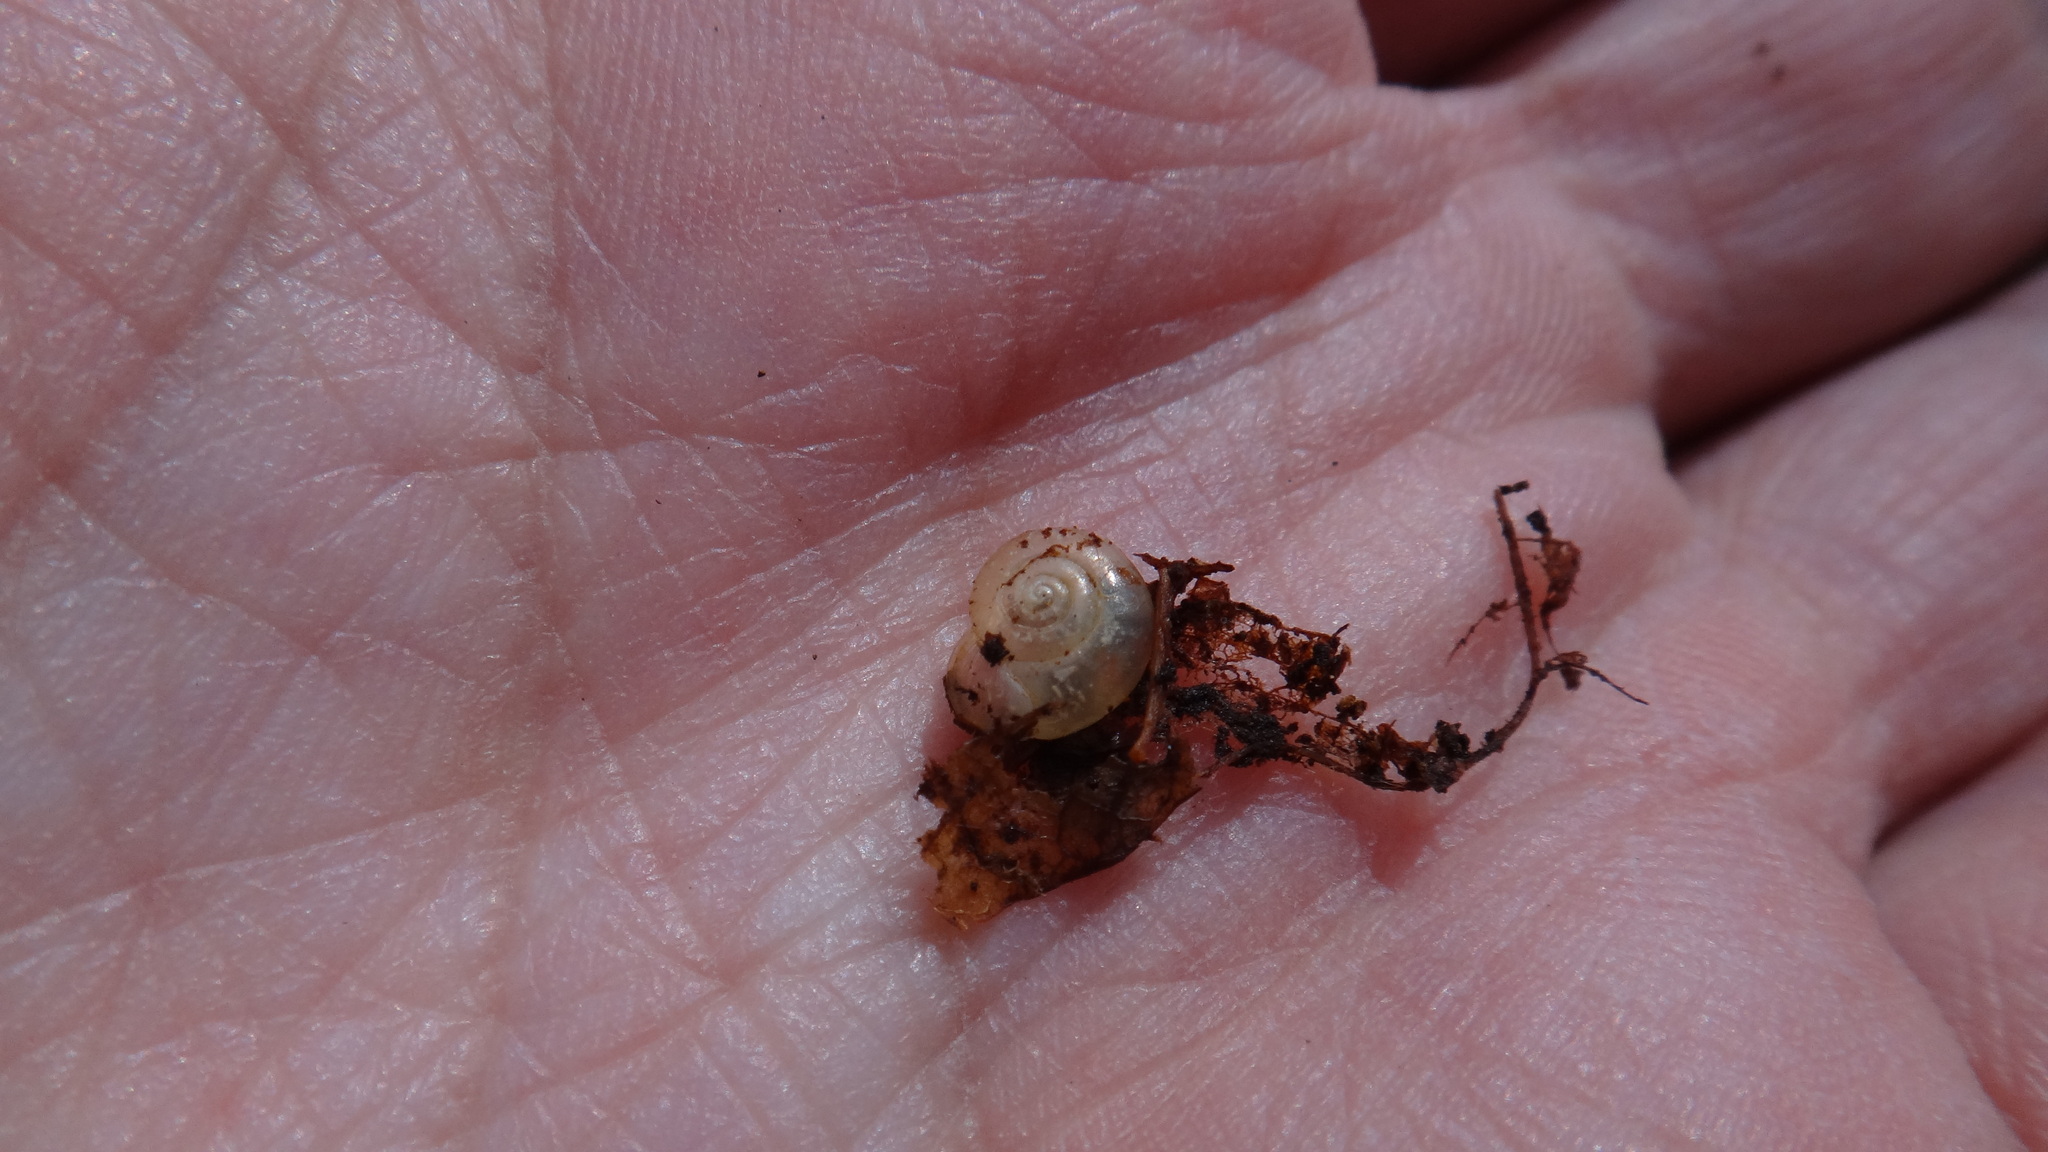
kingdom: Animalia
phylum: Mollusca
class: Gastropoda
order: Stylommatophora
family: Gastrodontidae
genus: Aegopinella
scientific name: Aegopinella minor
